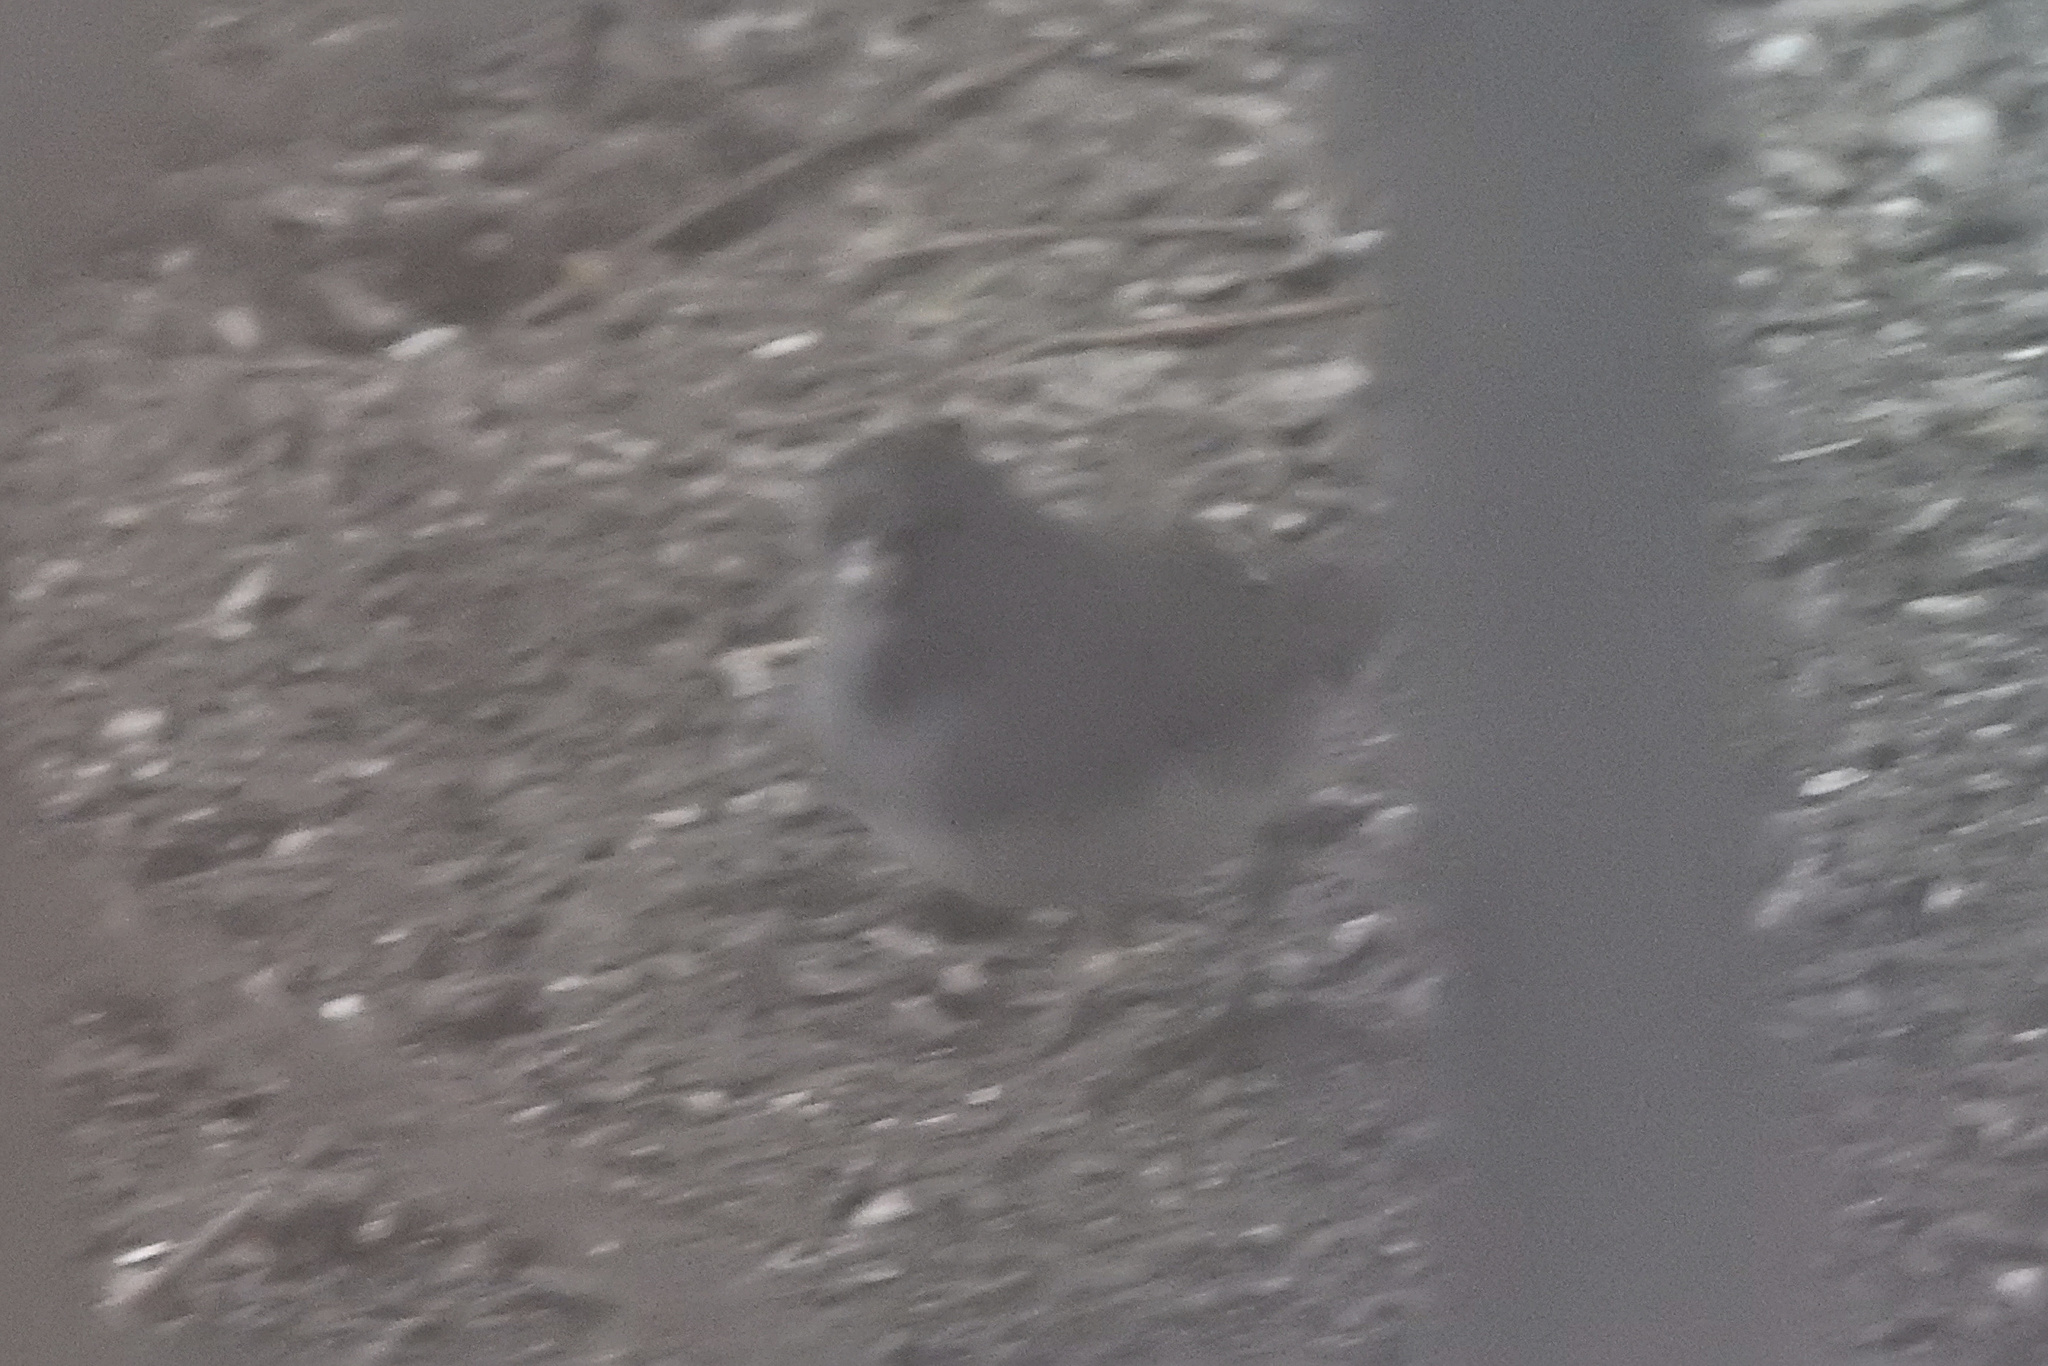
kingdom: Animalia
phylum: Chordata
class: Aves
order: Passeriformes
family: Passerellidae
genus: Junco
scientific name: Junco hyemalis
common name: Dark-eyed junco
